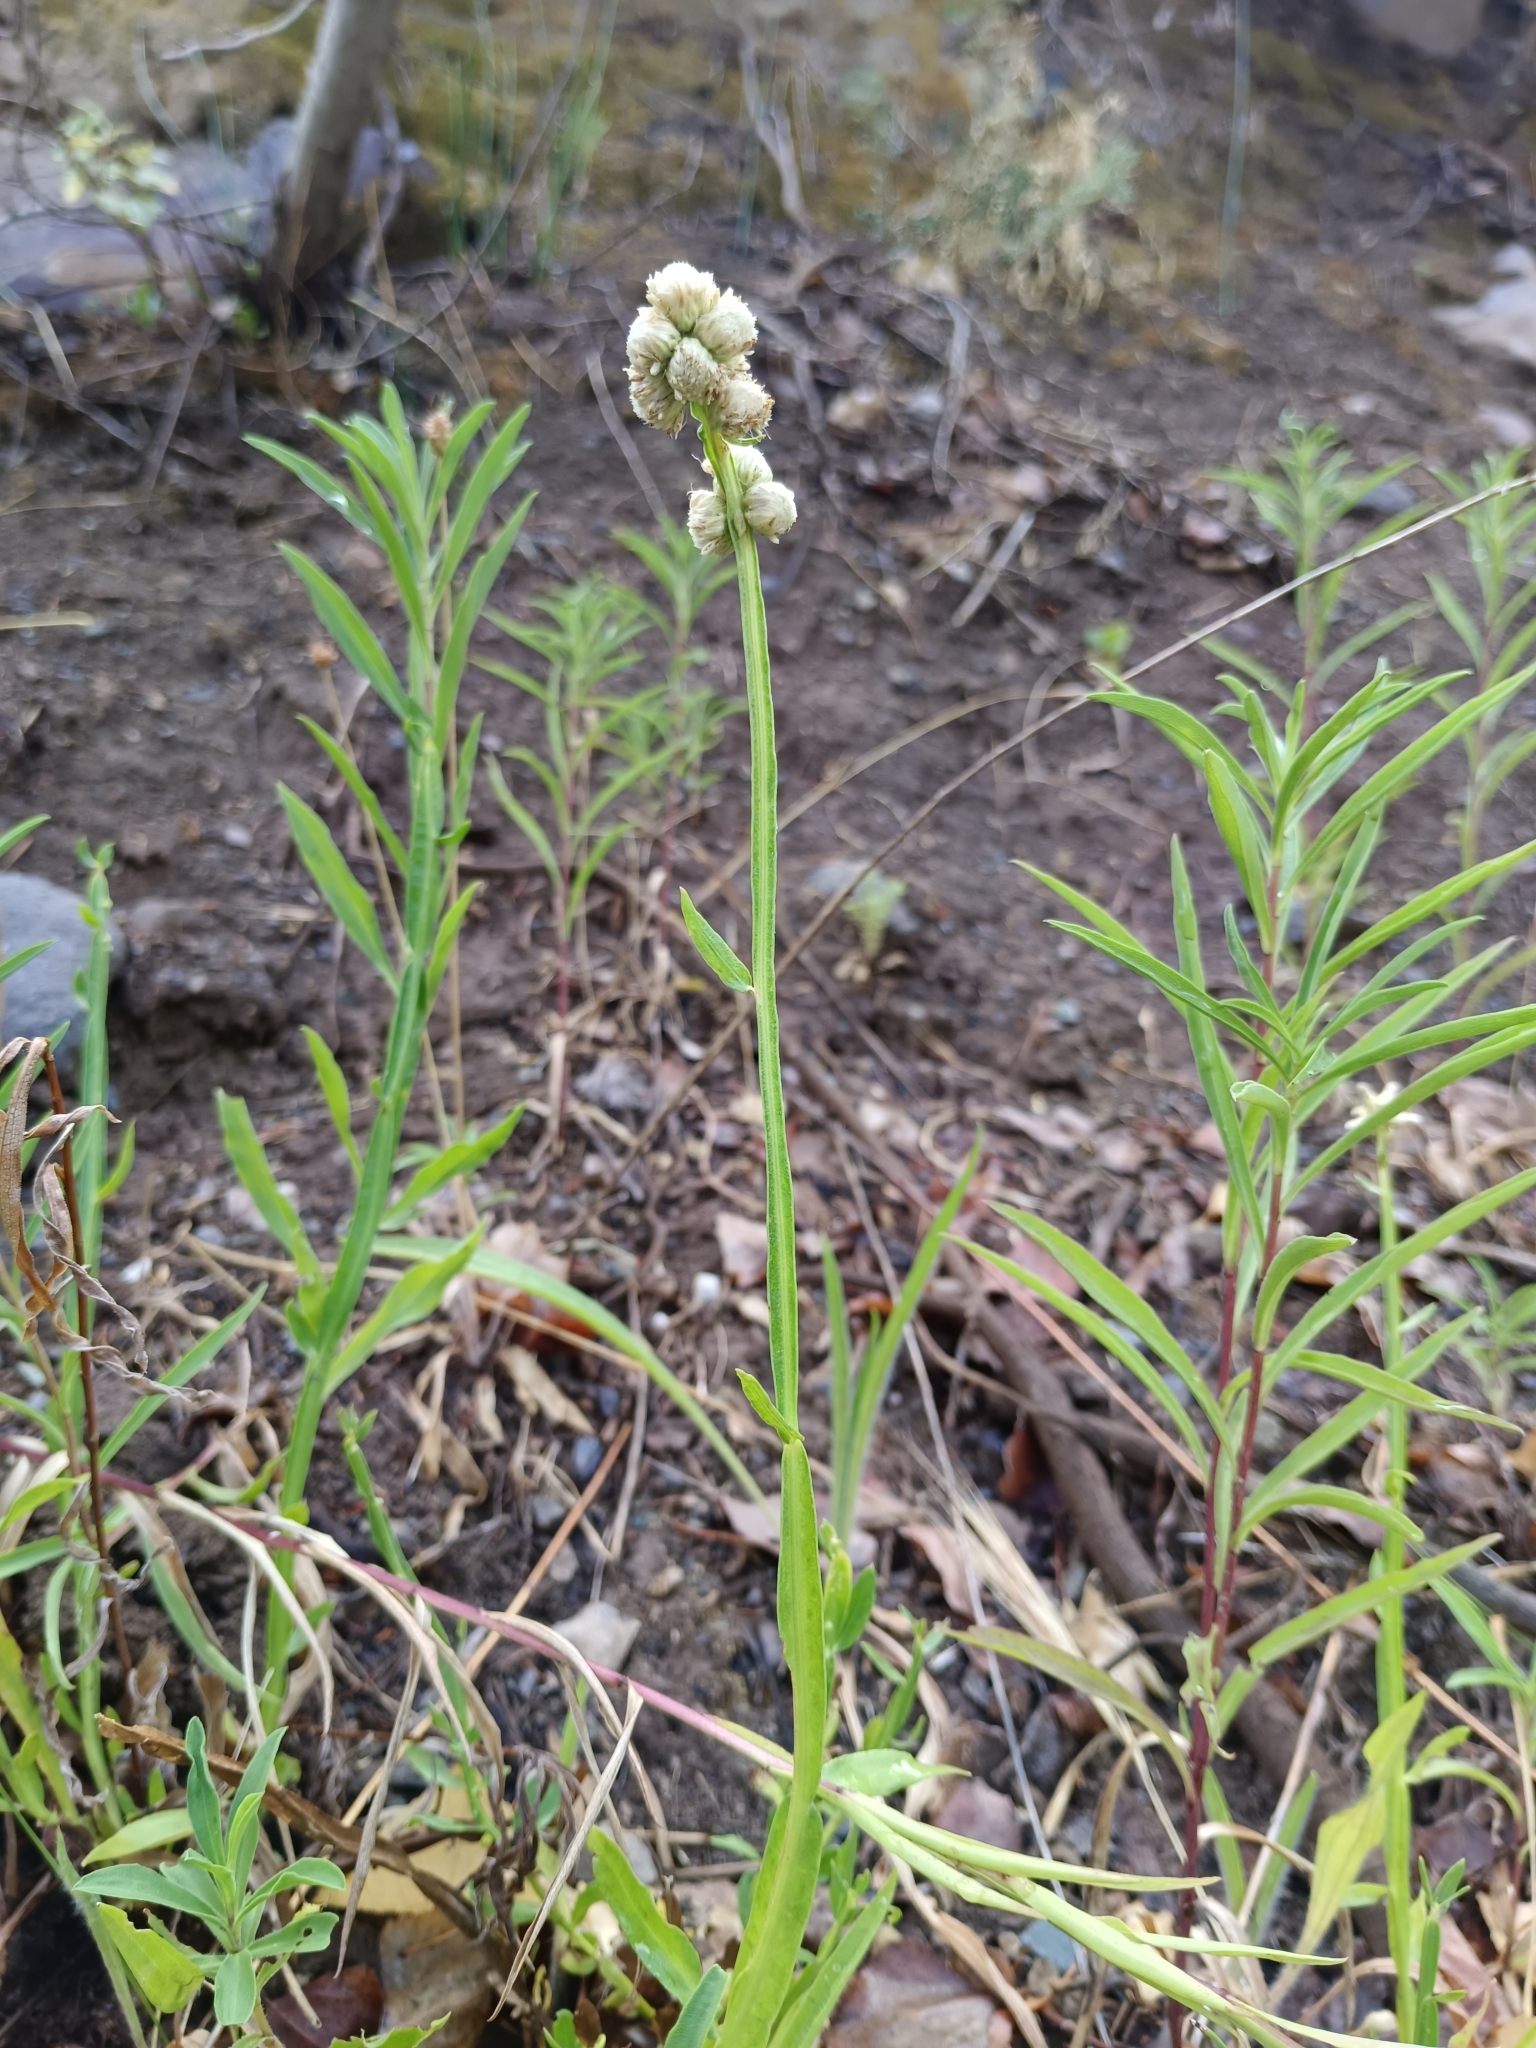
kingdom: Plantae
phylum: Tracheophyta
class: Magnoliopsida
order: Asterales
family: Asteraceae
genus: Baccharis
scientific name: Baccharis sagittalis
